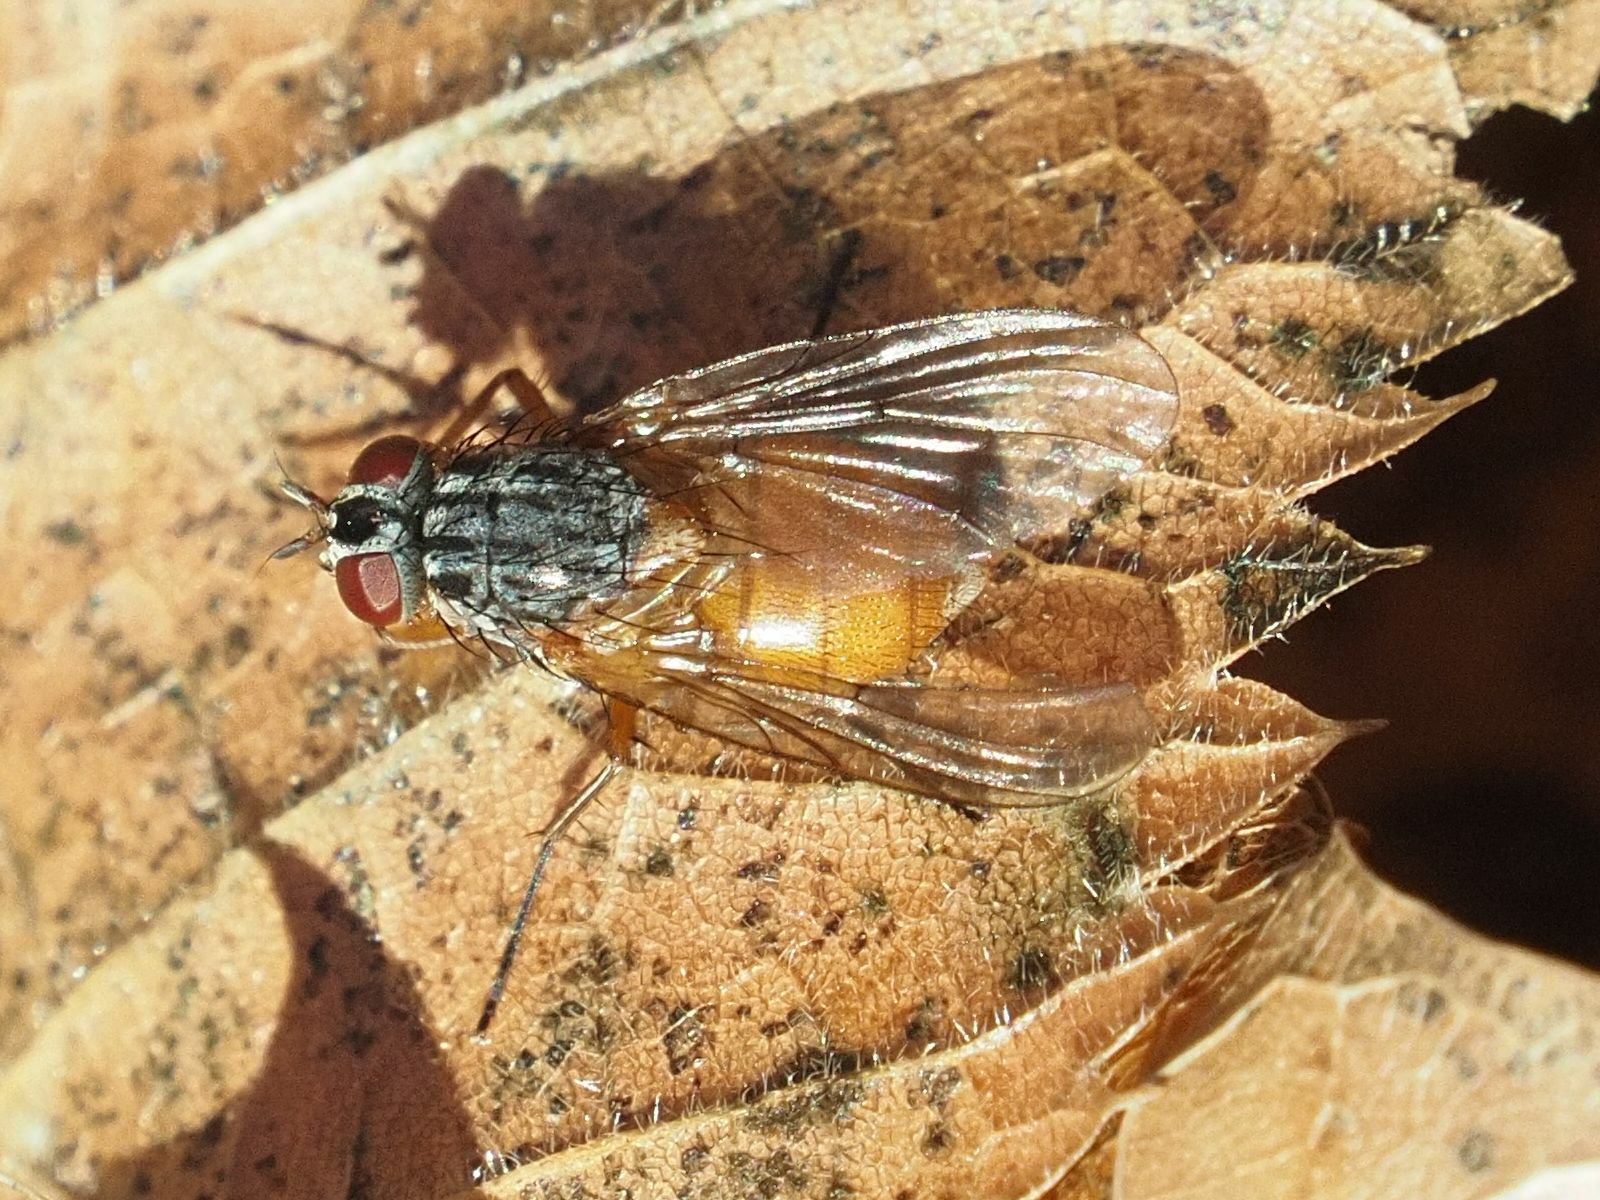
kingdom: Animalia
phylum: Arthropoda
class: Insecta
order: Diptera
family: Muscidae
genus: Phaonia
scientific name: Phaonia subventa
